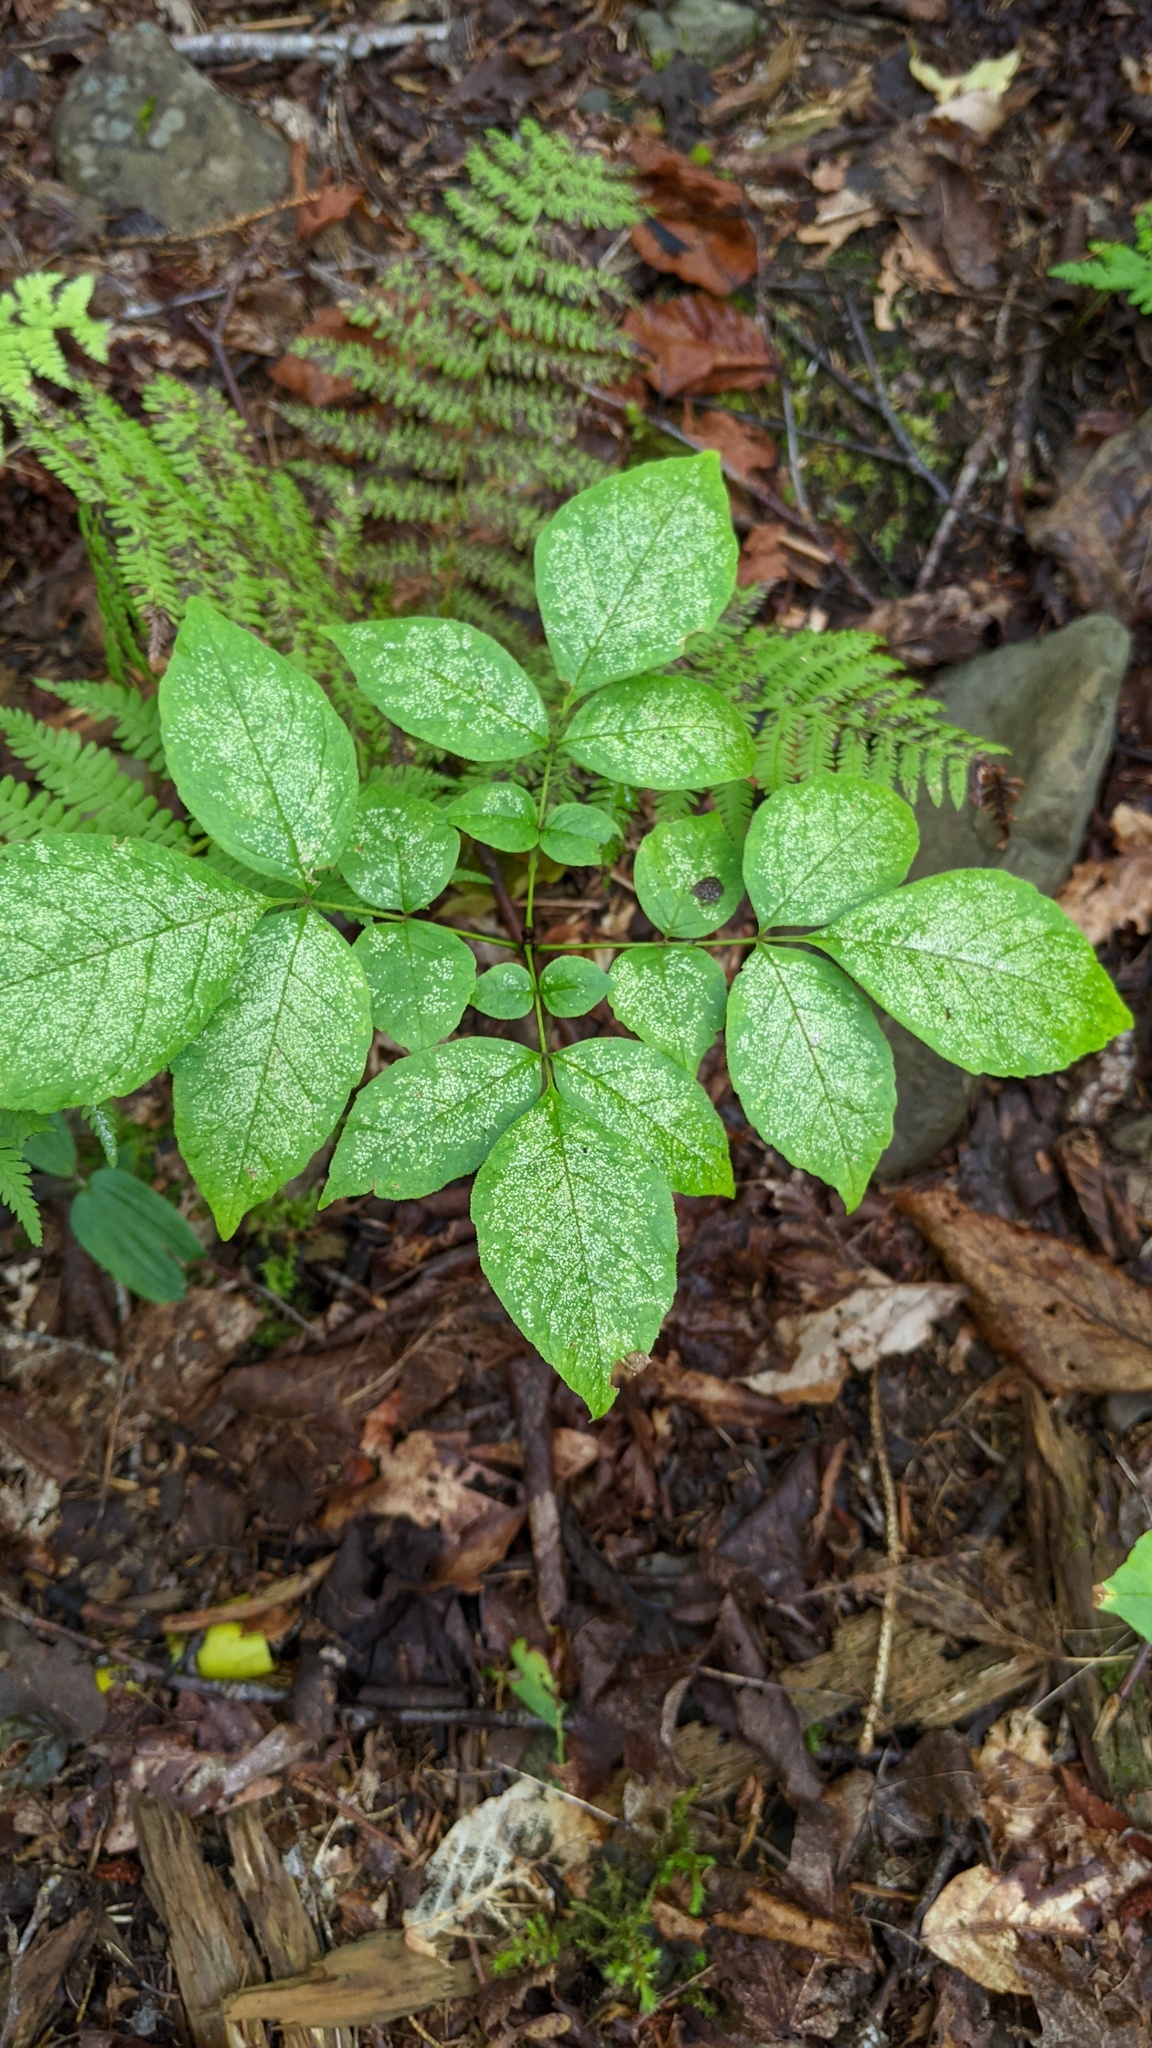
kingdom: Plantae
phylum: Tracheophyta
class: Magnoliopsida
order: Apiales
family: Araliaceae
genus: Aralia
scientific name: Aralia nudicaulis
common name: Wild sarsaparilla
